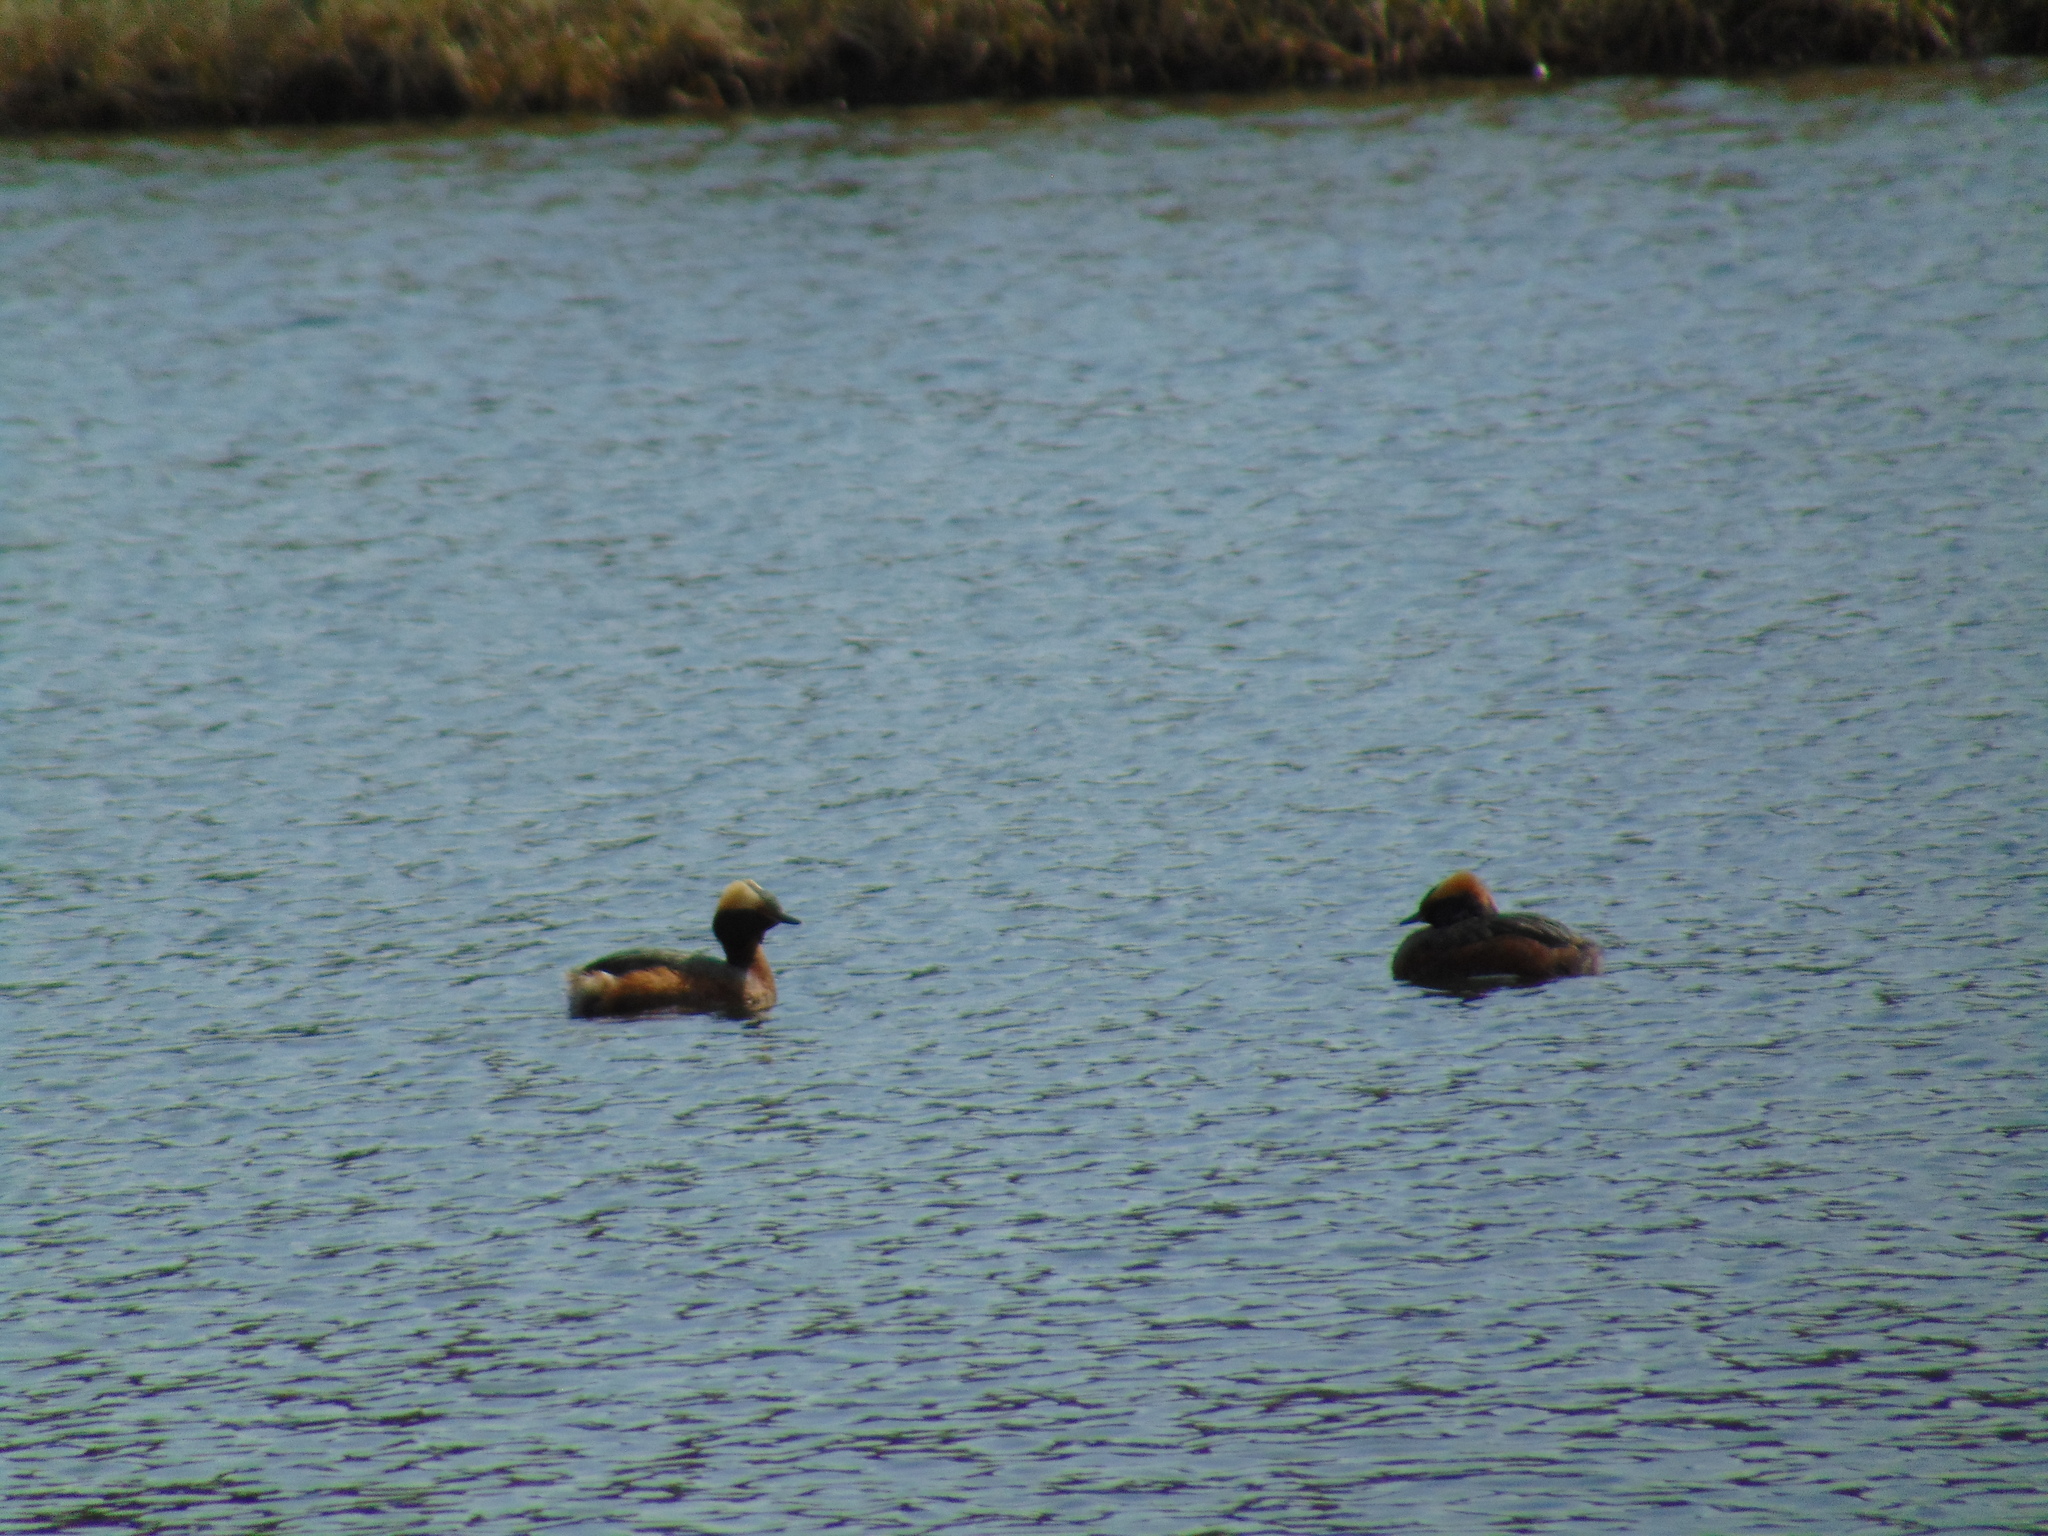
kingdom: Animalia
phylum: Chordata
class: Aves
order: Podicipediformes
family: Podicipedidae
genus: Podiceps
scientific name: Podiceps auritus
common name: Horned grebe
